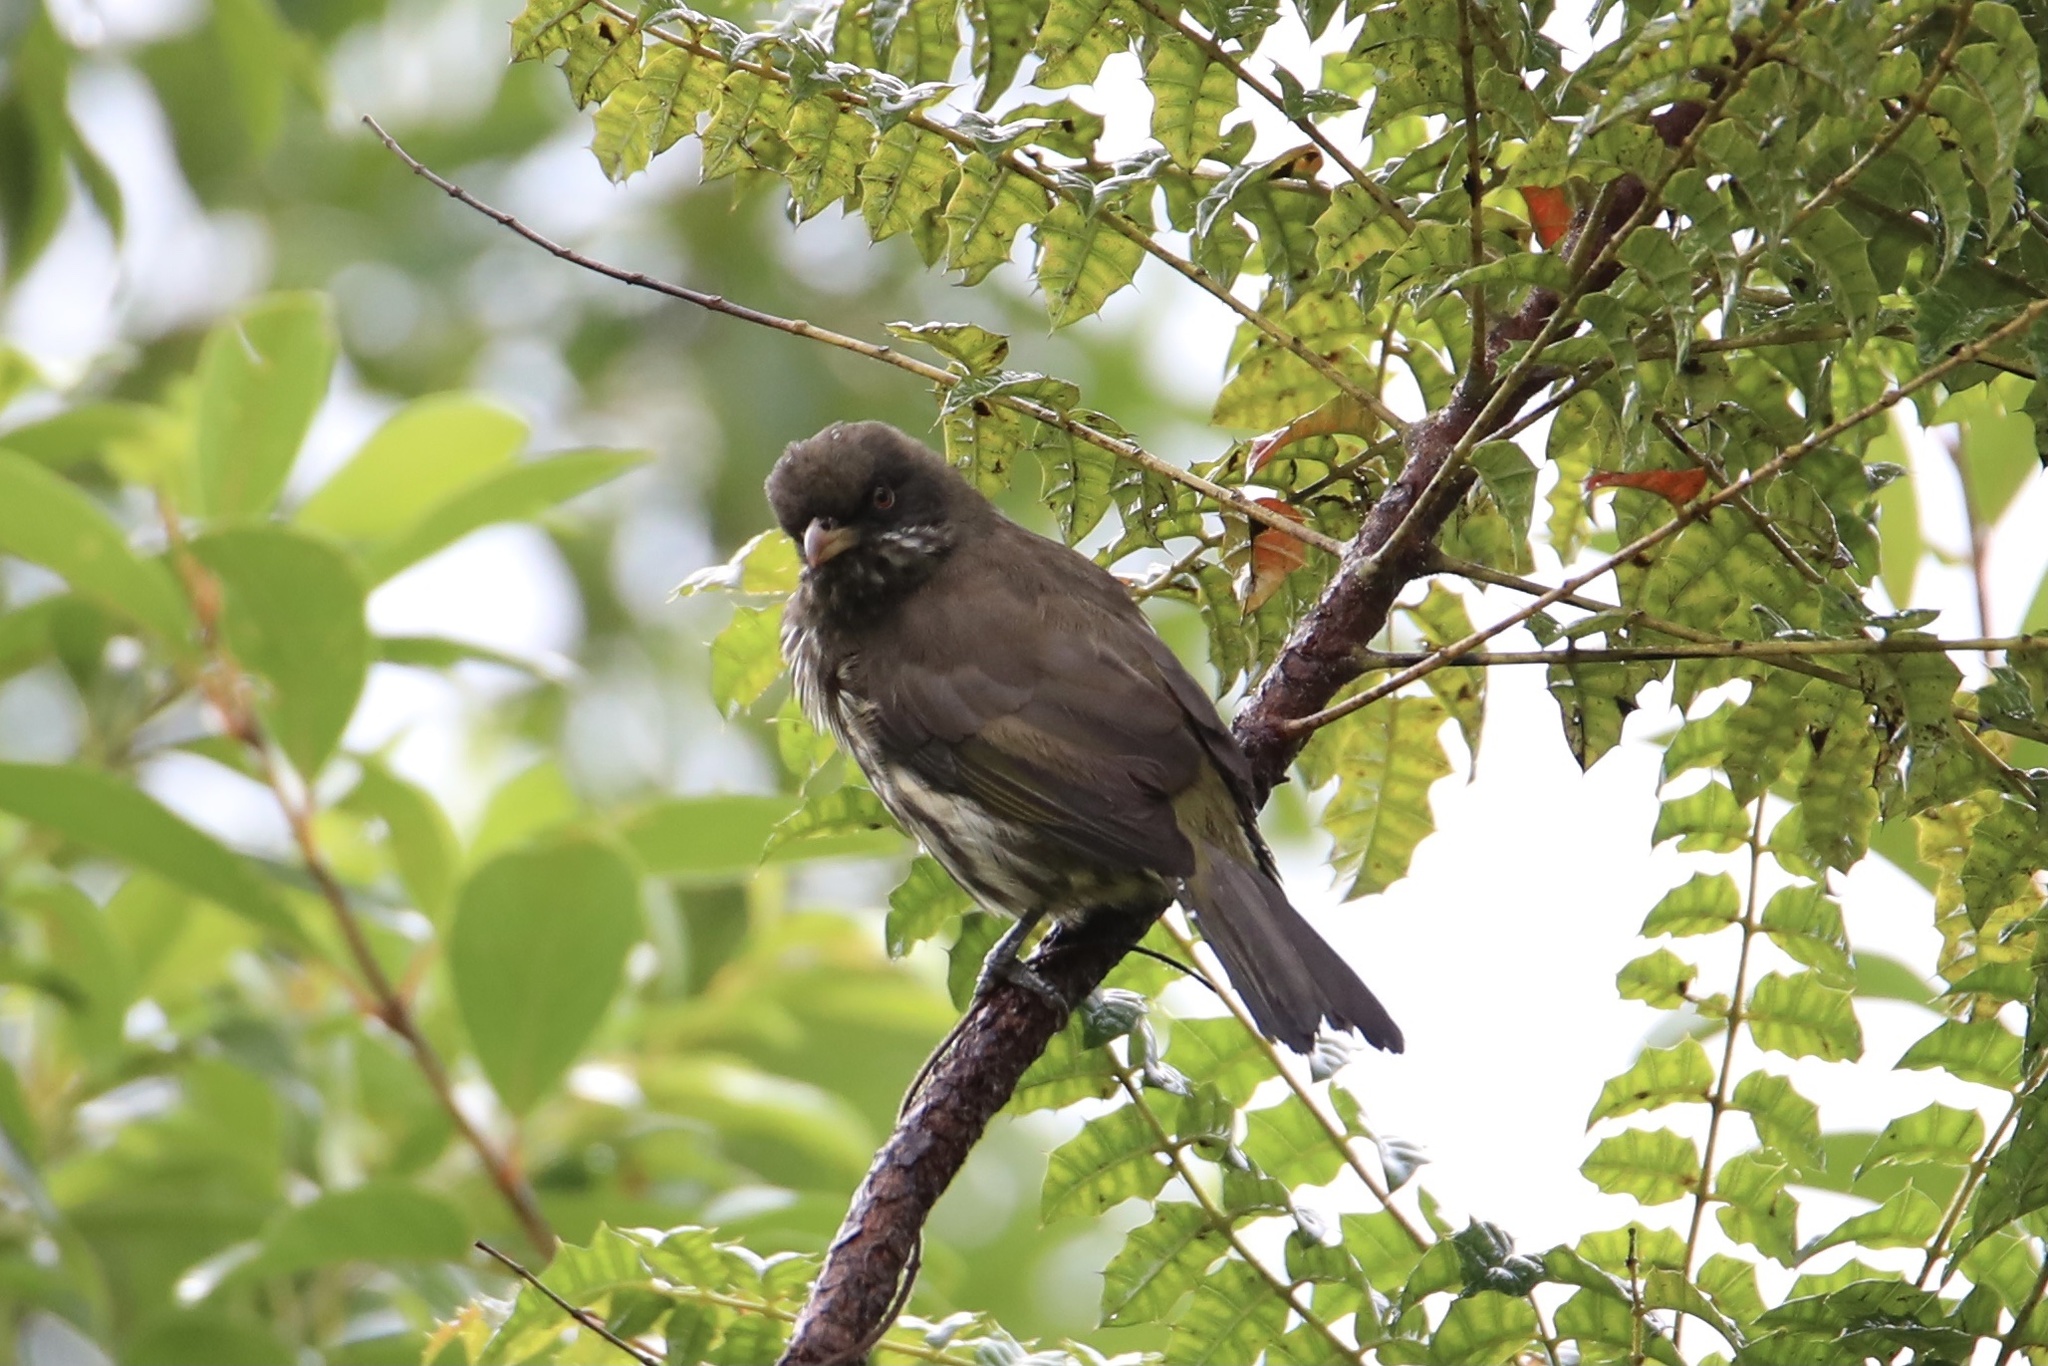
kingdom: Animalia
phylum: Chordata
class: Aves
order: Passeriformes
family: Dulidae
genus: Dulus
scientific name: Dulus dominicus
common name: Palmchat
